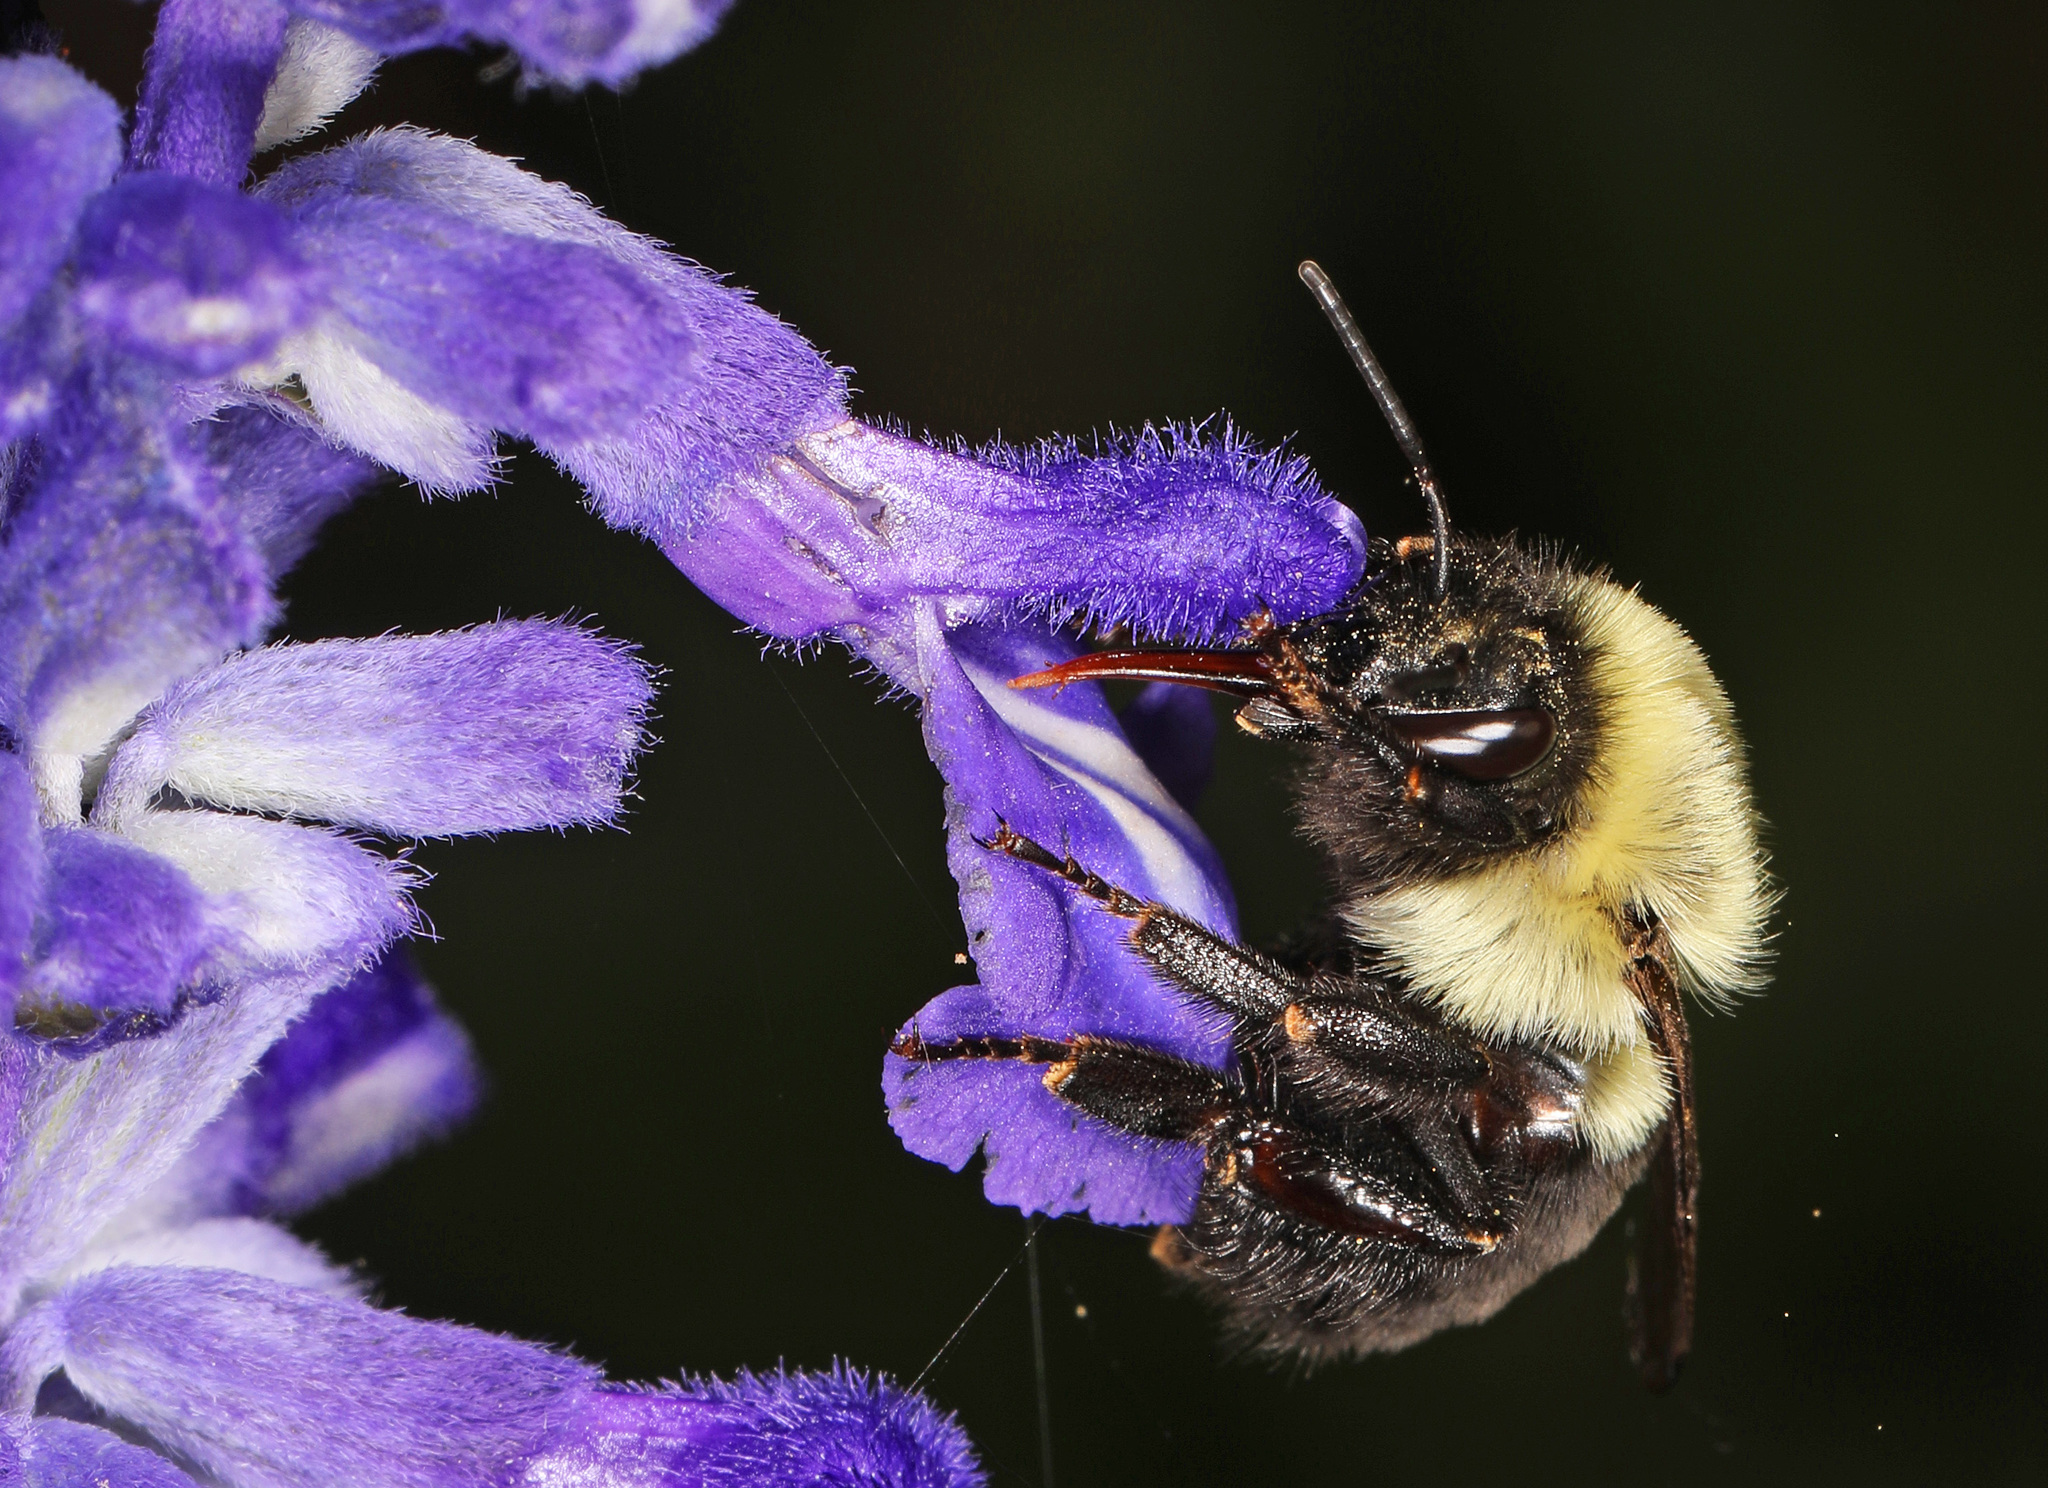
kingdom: Animalia
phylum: Arthropoda
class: Insecta
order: Hymenoptera
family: Apidae
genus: Bombus
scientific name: Bombus impatiens
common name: Common eastern bumble bee
